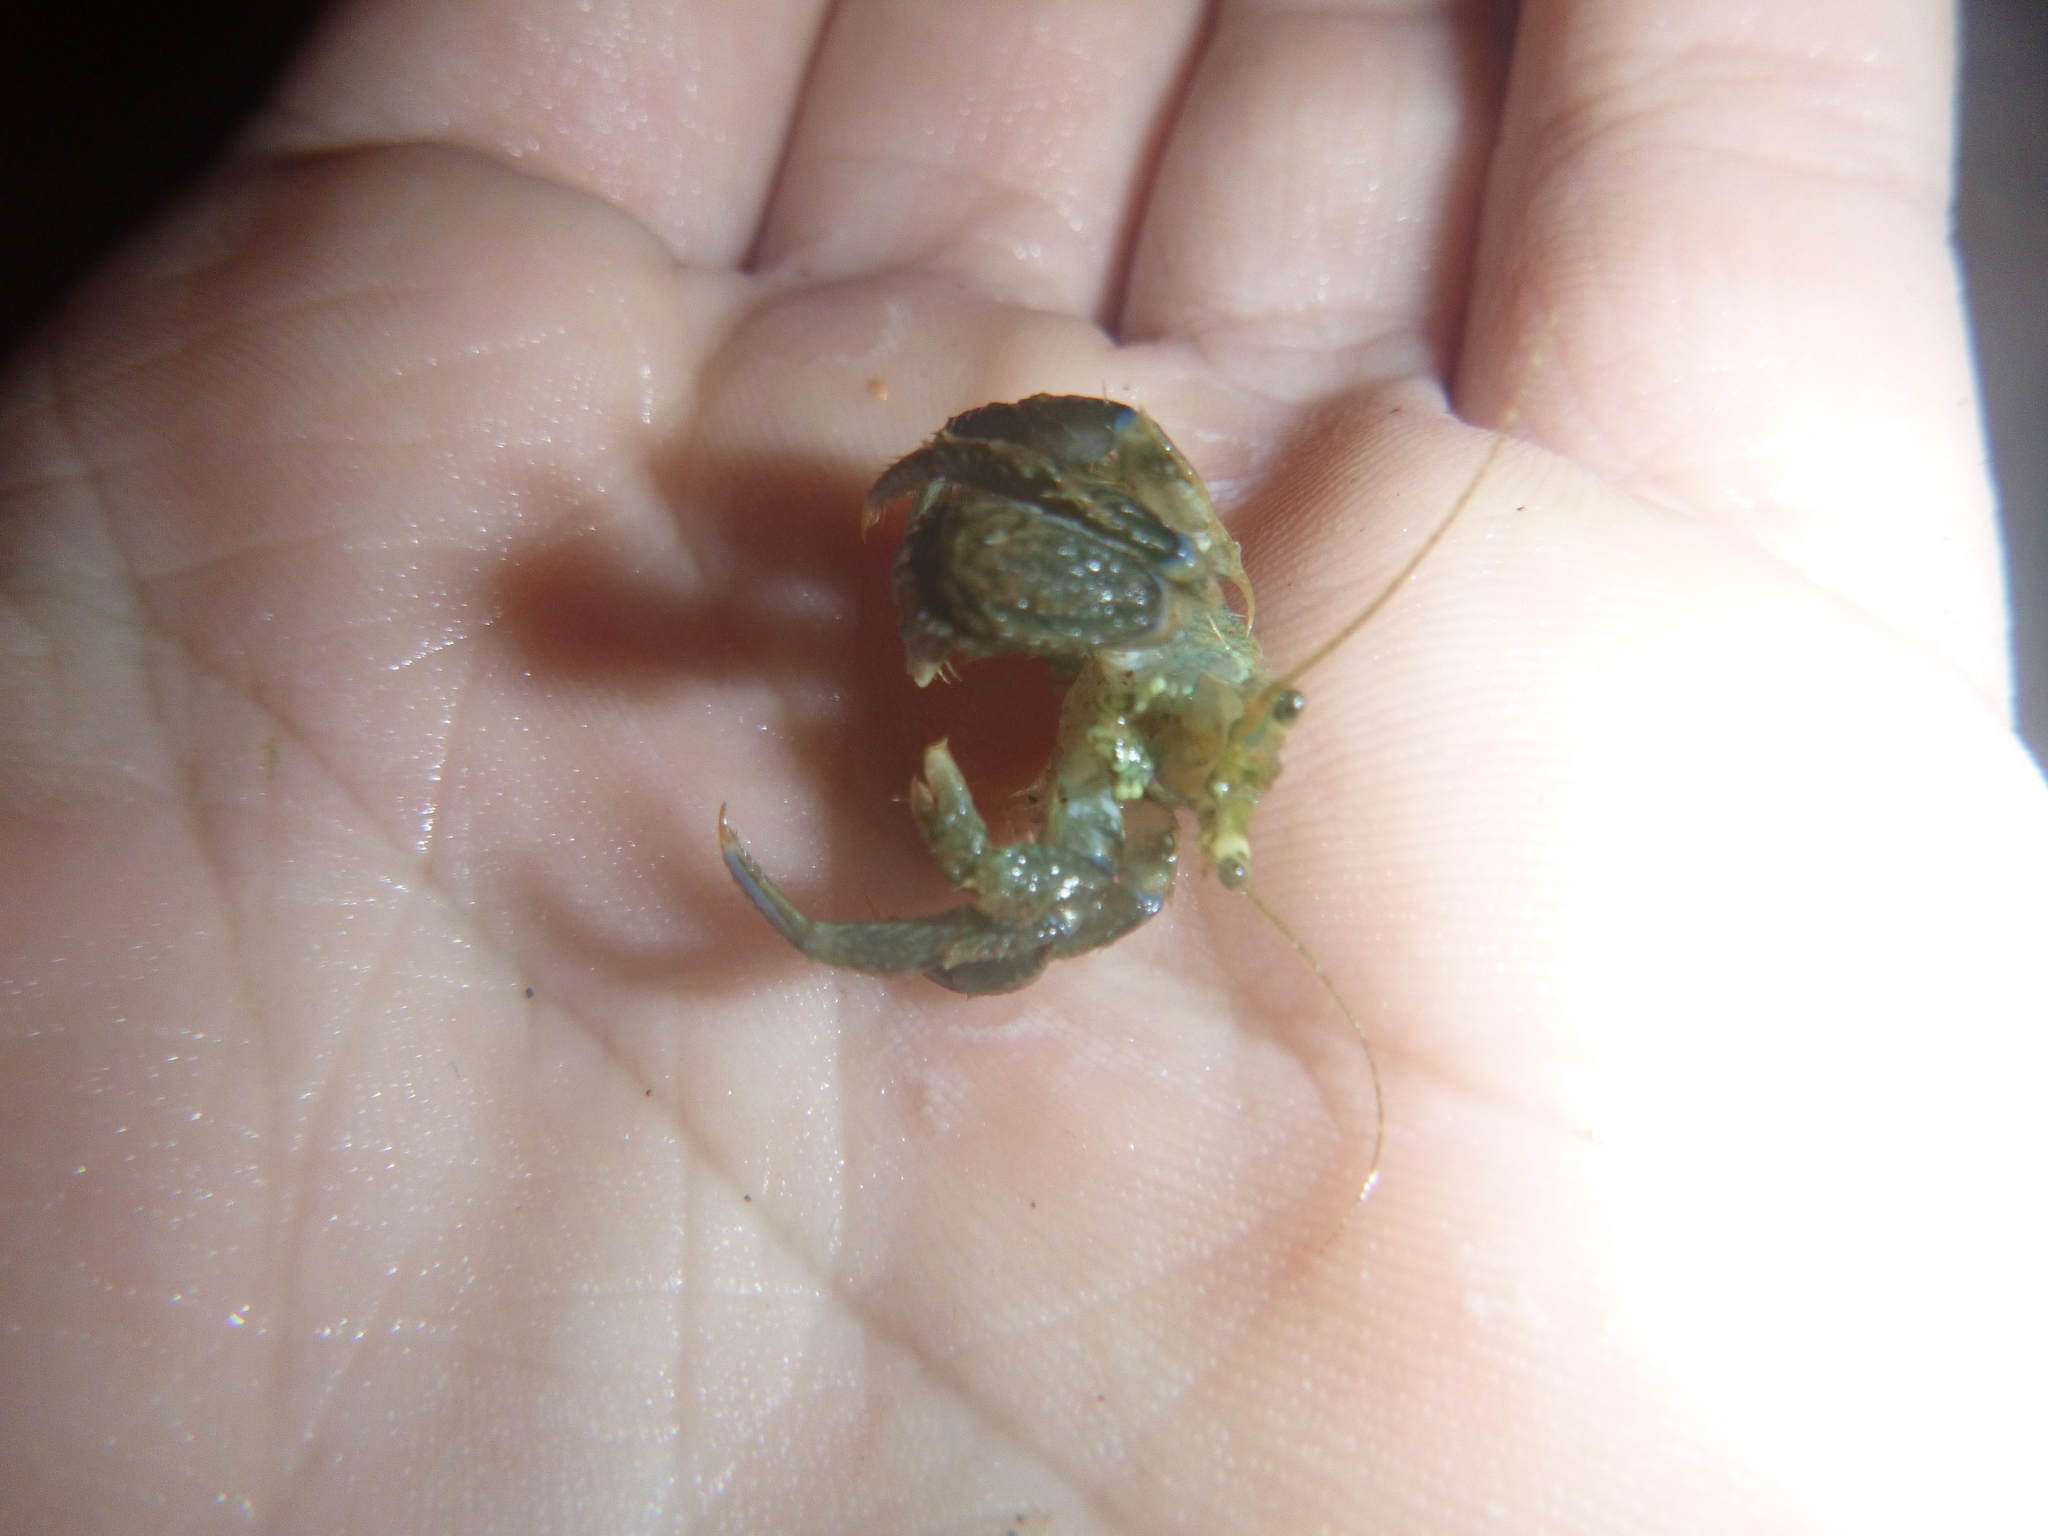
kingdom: Animalia
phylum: Arthropoda
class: Malacostraca
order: Decapoda
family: Paguridae
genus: Pagurus
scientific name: Pagurus novizealandiae
